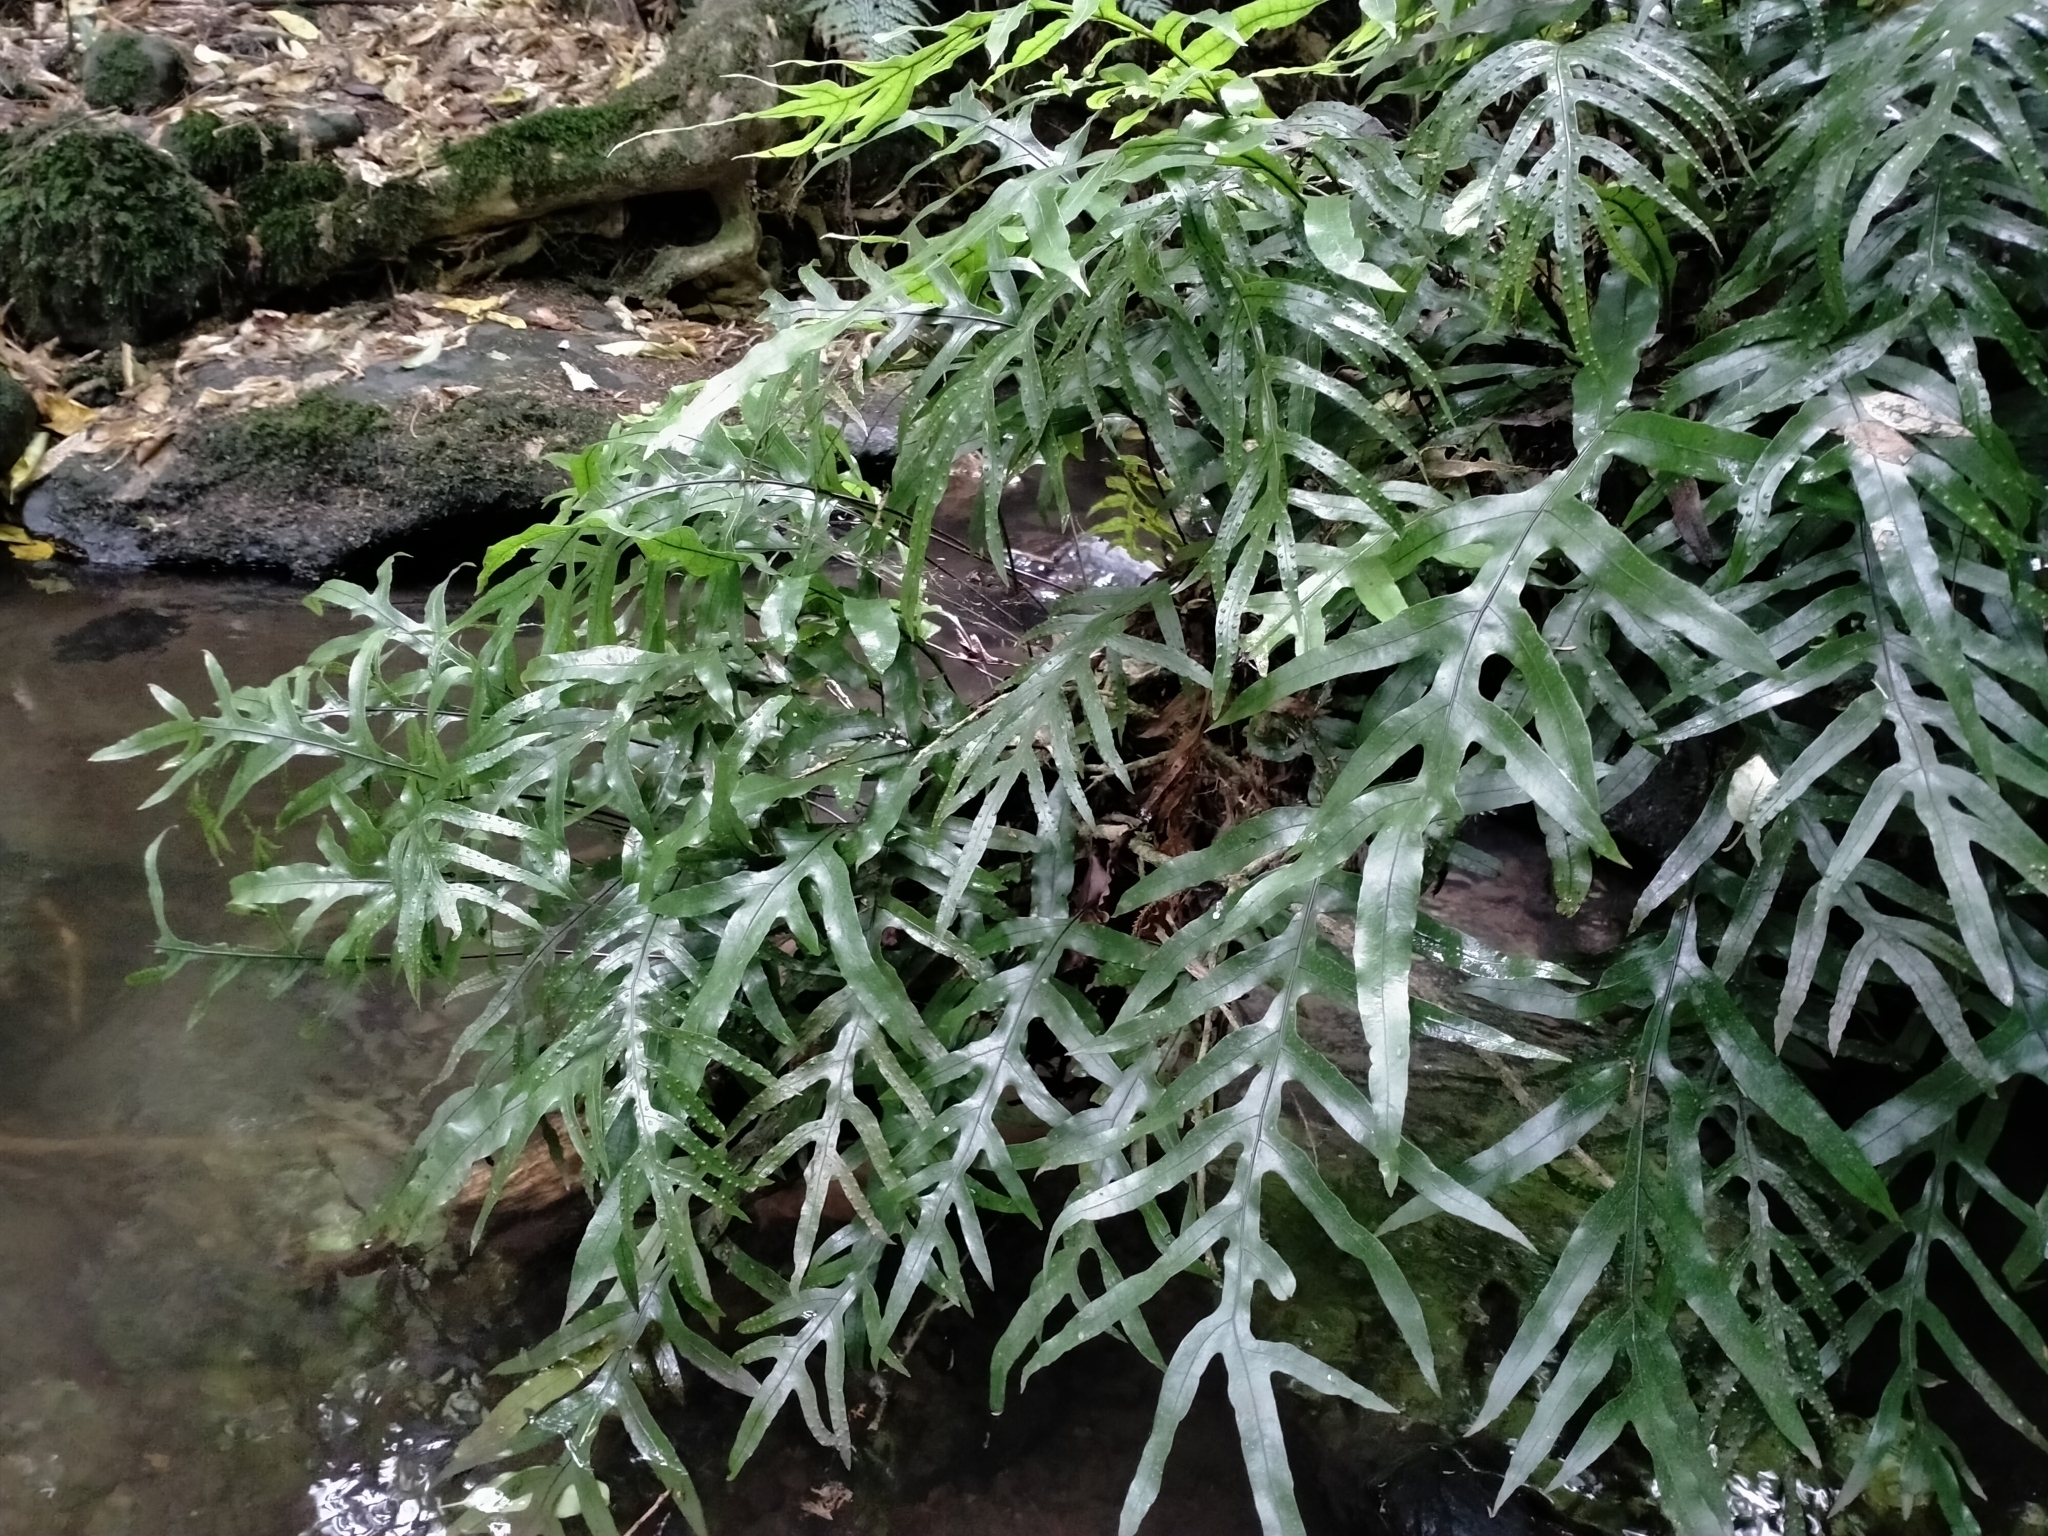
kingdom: Plantae
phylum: Tracheophyta
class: Polypodiopsida
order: Polypodiales
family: Polypodiaceae
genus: Lecanopteris
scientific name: Lecanopteris pustulata
